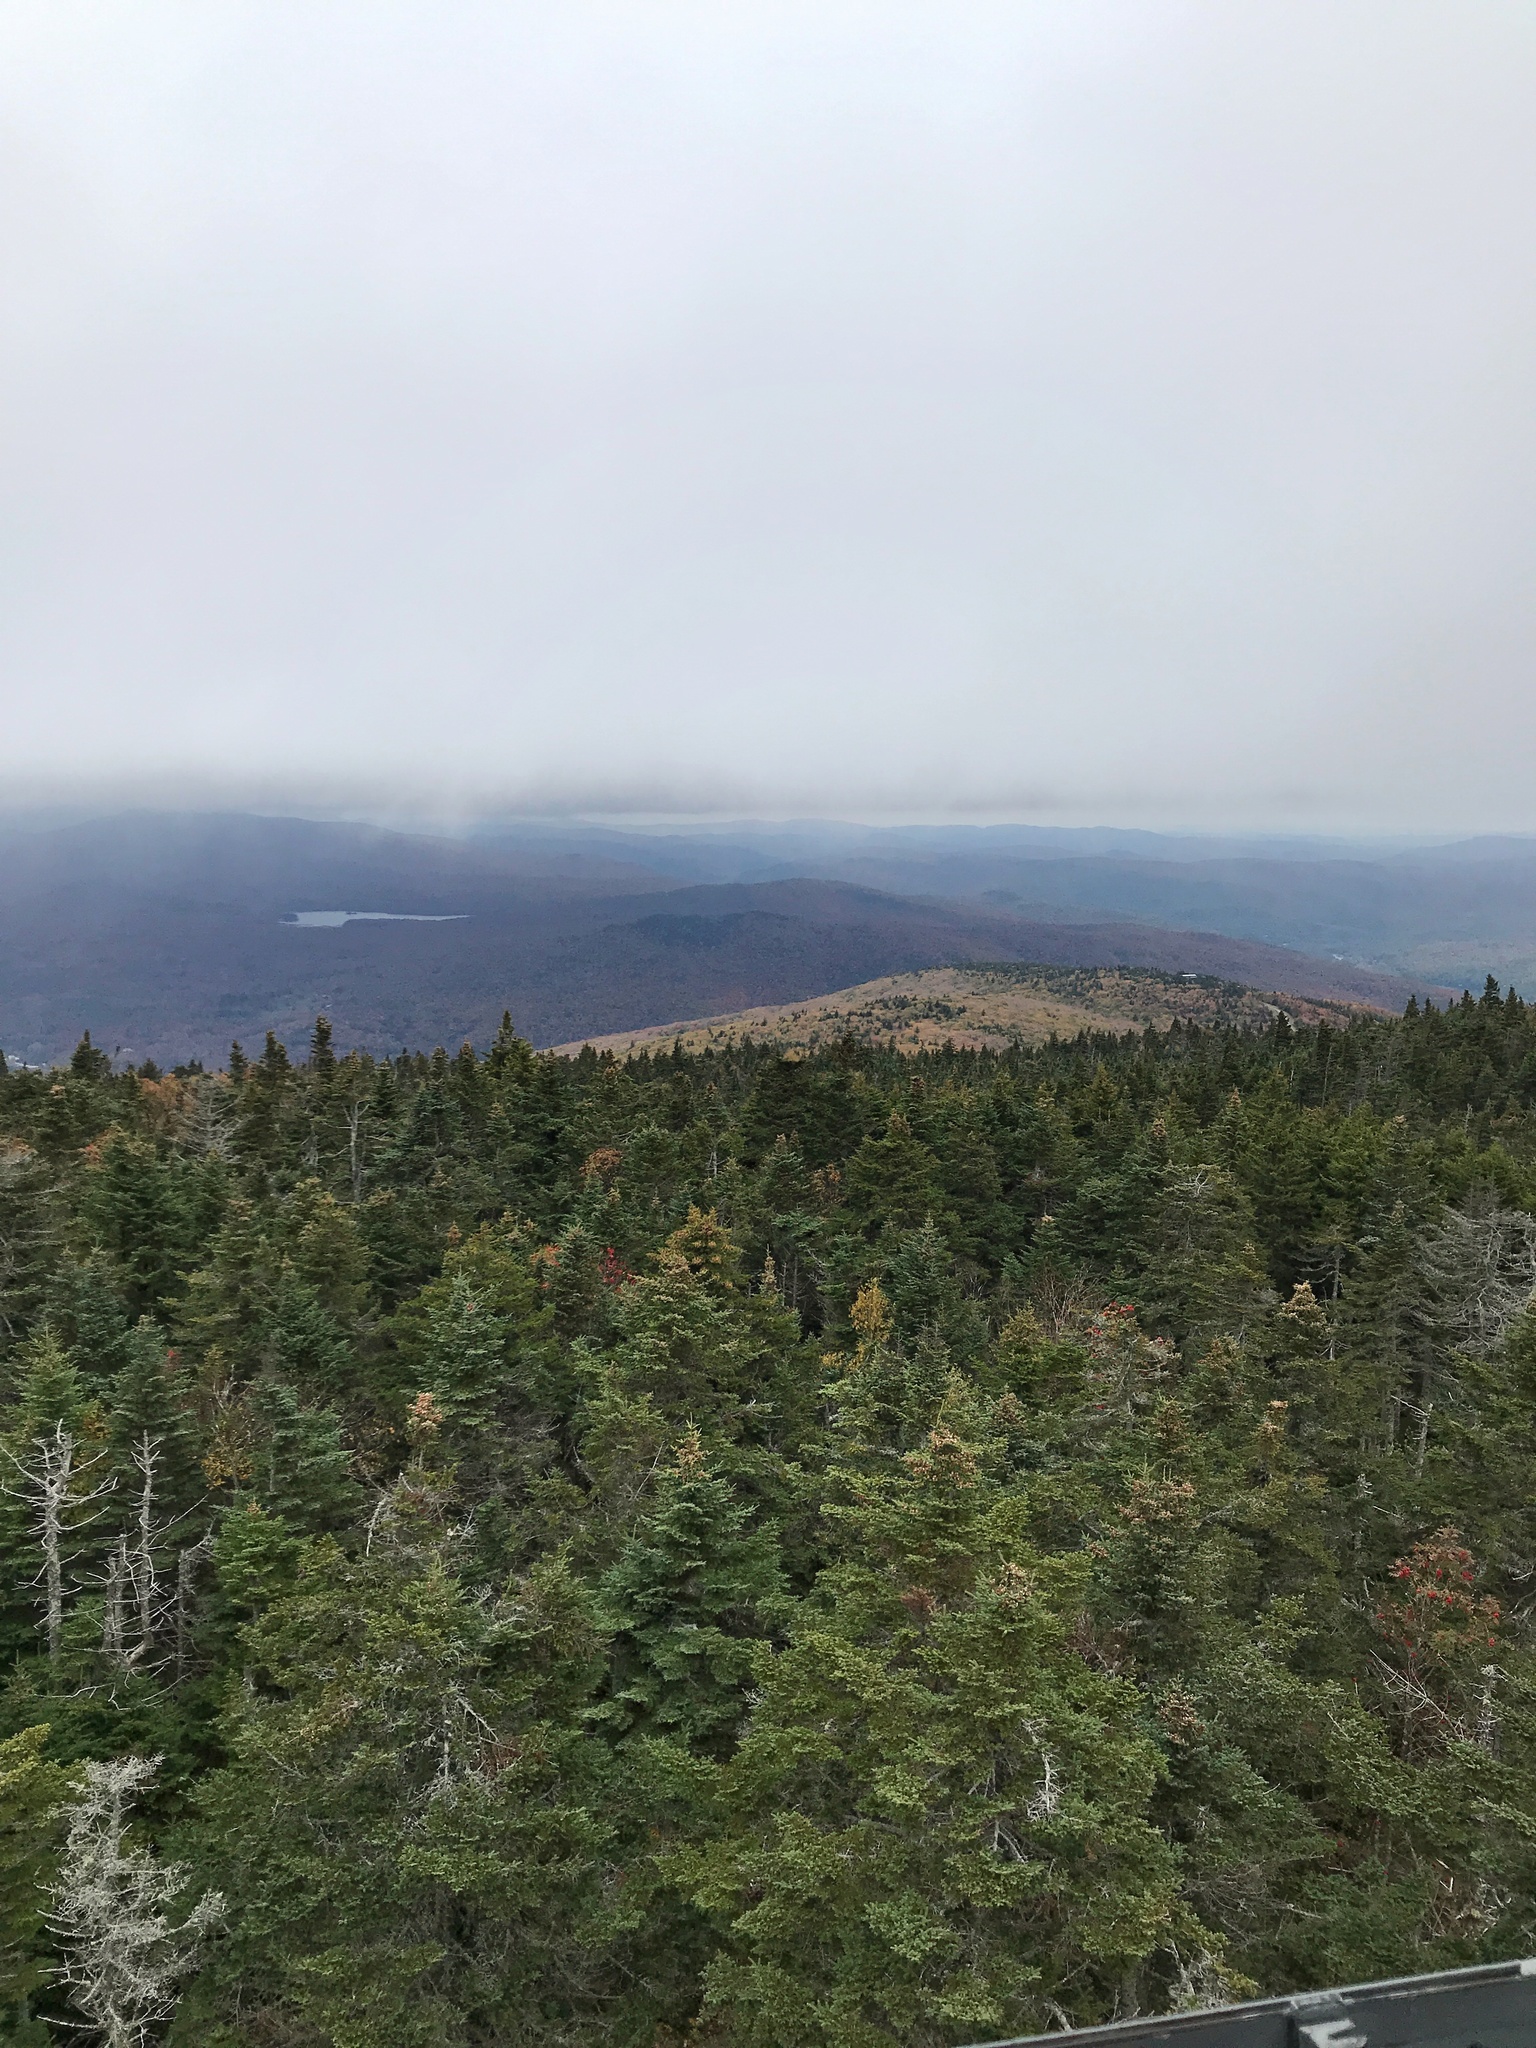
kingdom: Plantae
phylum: Tracheophyta
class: Pinopsida
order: Pinales
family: Pinaceae
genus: Abies
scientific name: Abies balsamea
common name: Balsam fir
